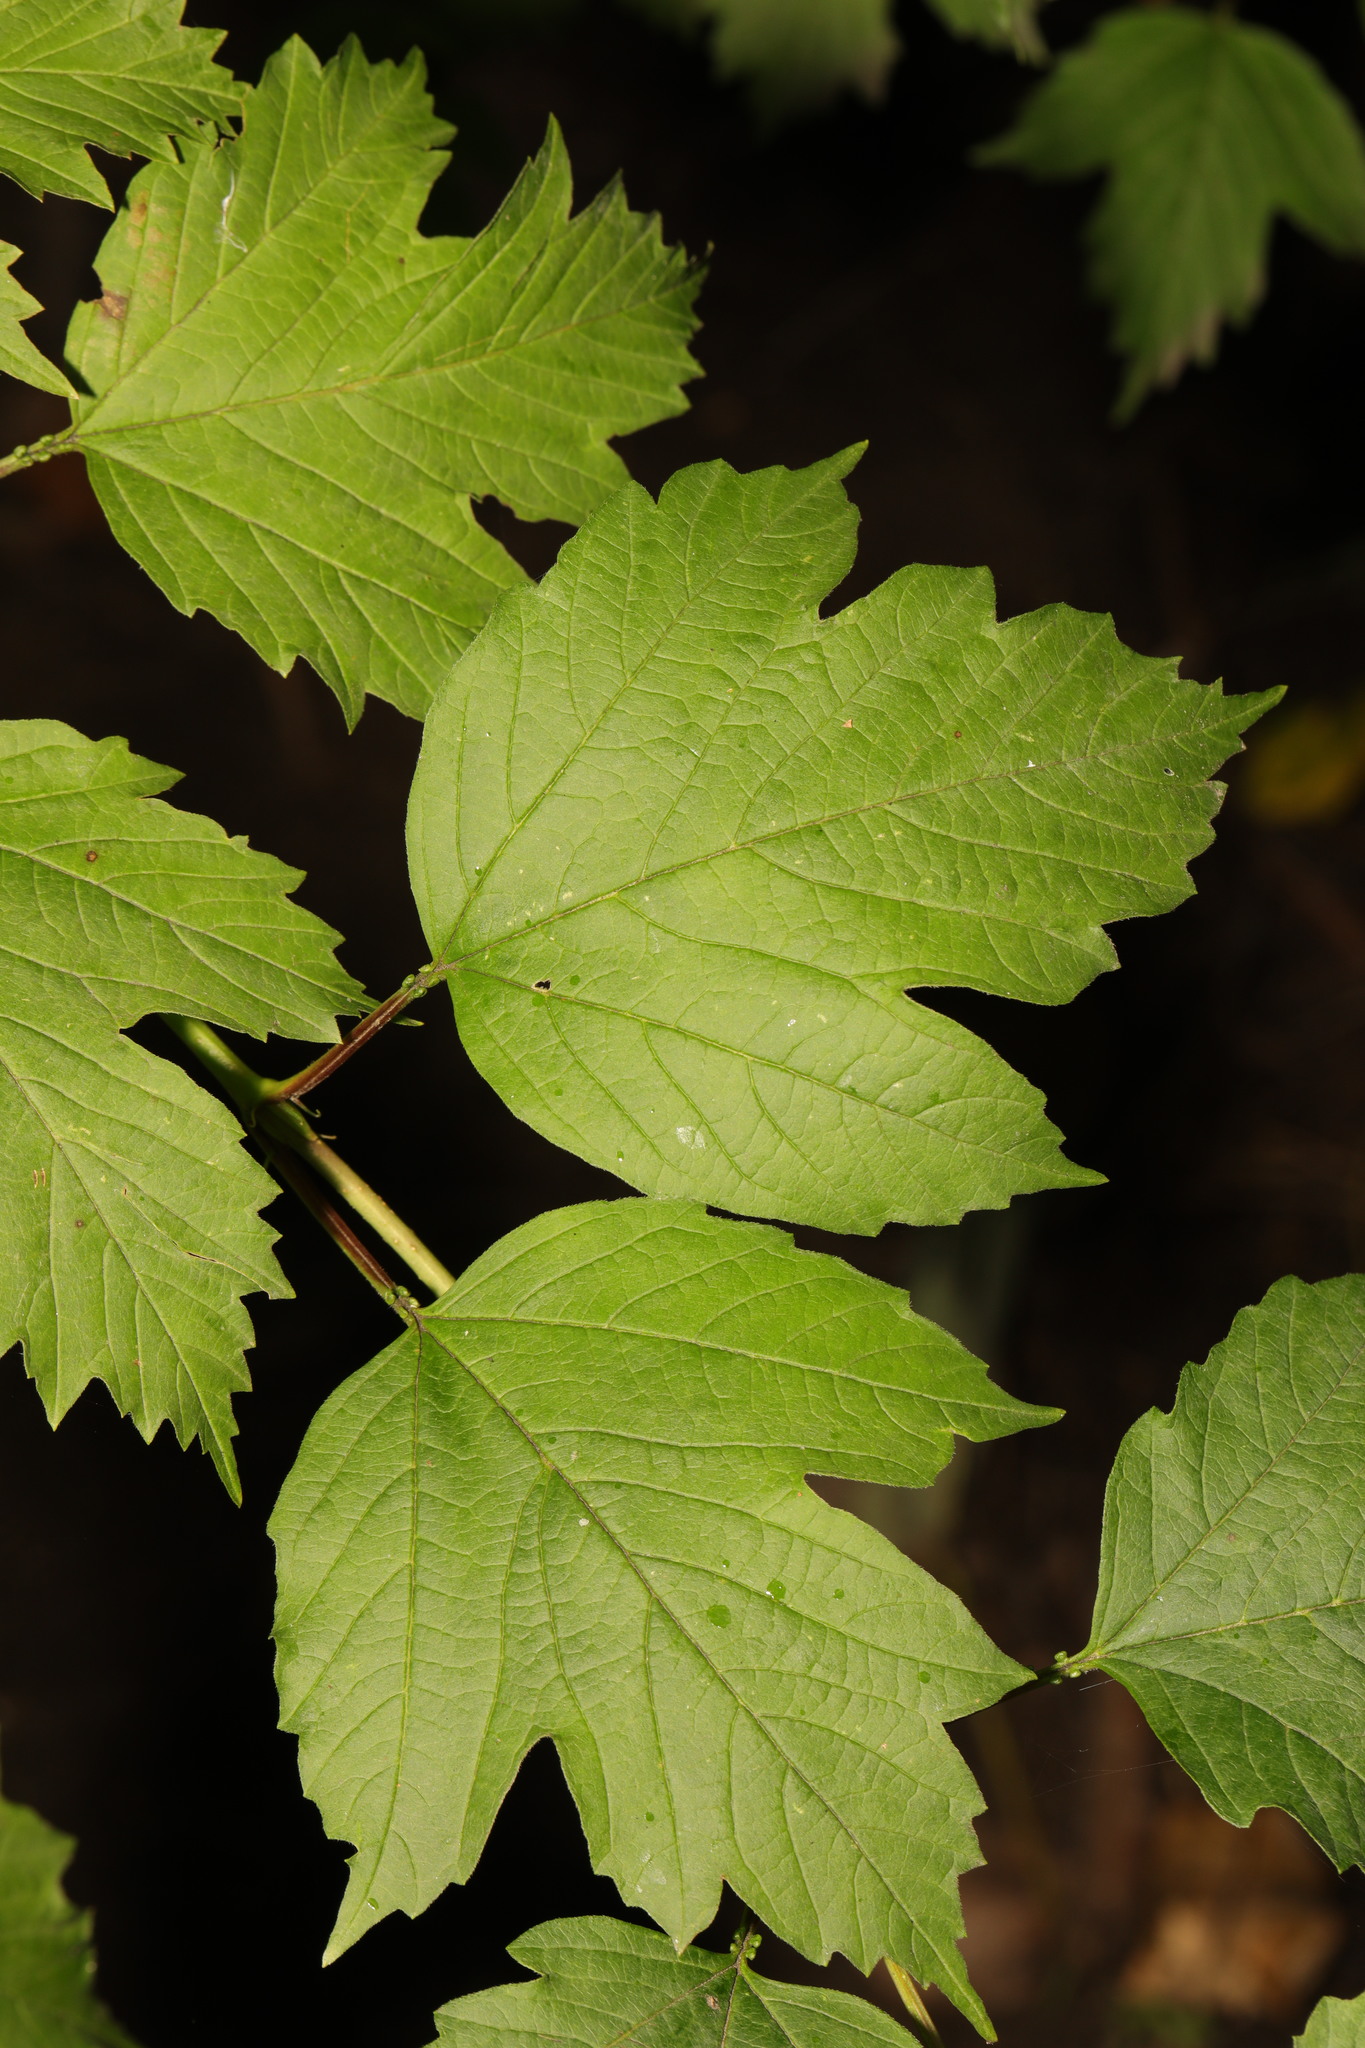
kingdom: Plantae
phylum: Tracheophyta
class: Magnoliopsida
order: Dipsacales
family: Viburnaceae
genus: Viburnum
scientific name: Viburnum opulus
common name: Guelder-rose
